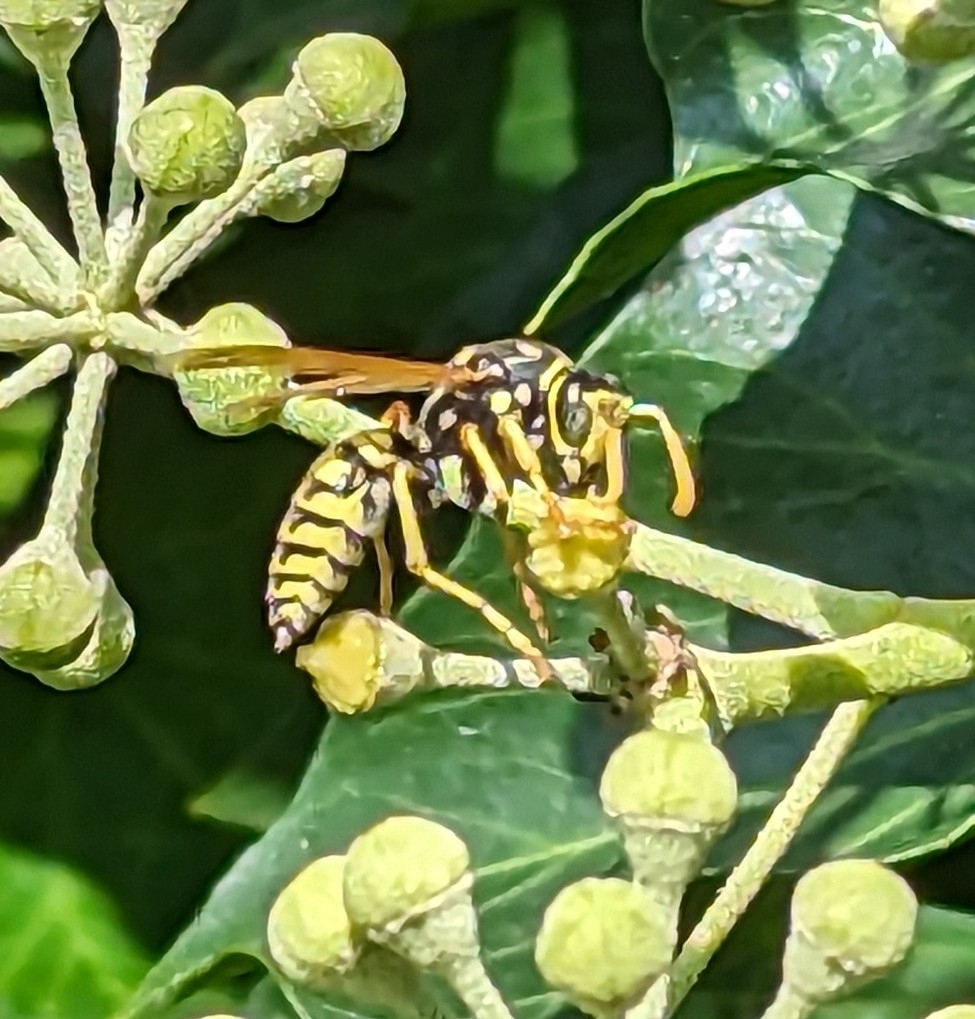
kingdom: Animalia
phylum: Arthropoda
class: Insecta
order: Hymenoptera
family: Eumenidae
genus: Polistes
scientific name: Polistes dominula
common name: Paper wasp
